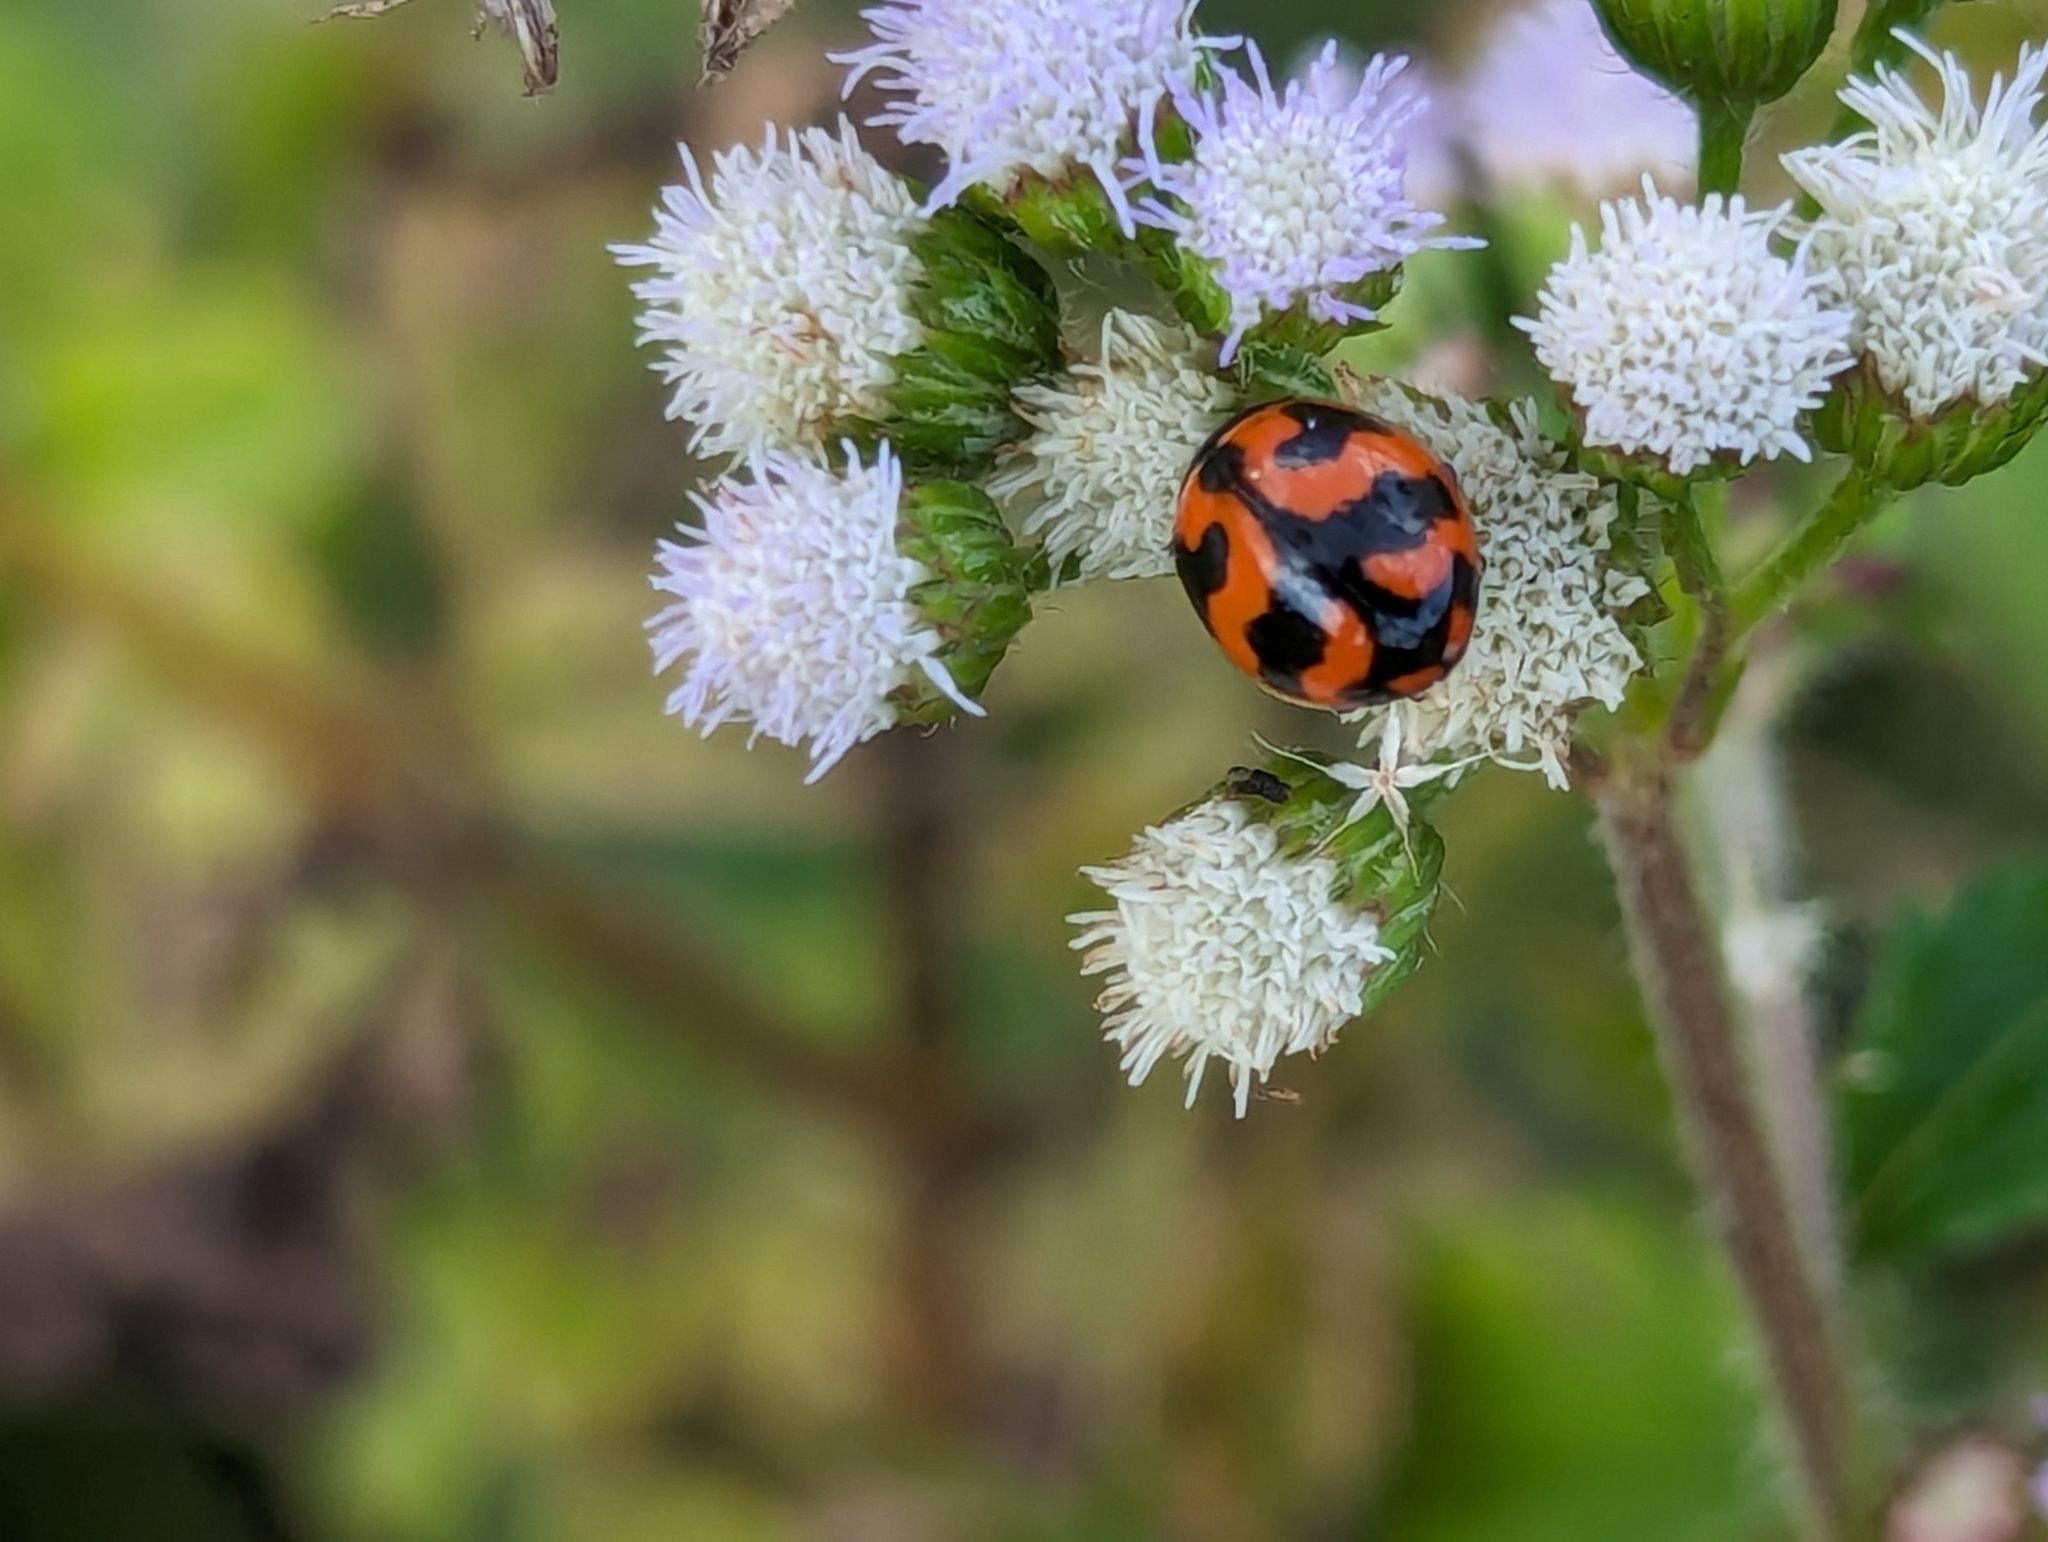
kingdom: Animalia
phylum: Arthropoda
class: Insecta
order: Coleoptera
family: Coccinellidae
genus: Coccinella
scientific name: Coccinella transversalis
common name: Transverse lady beetle
